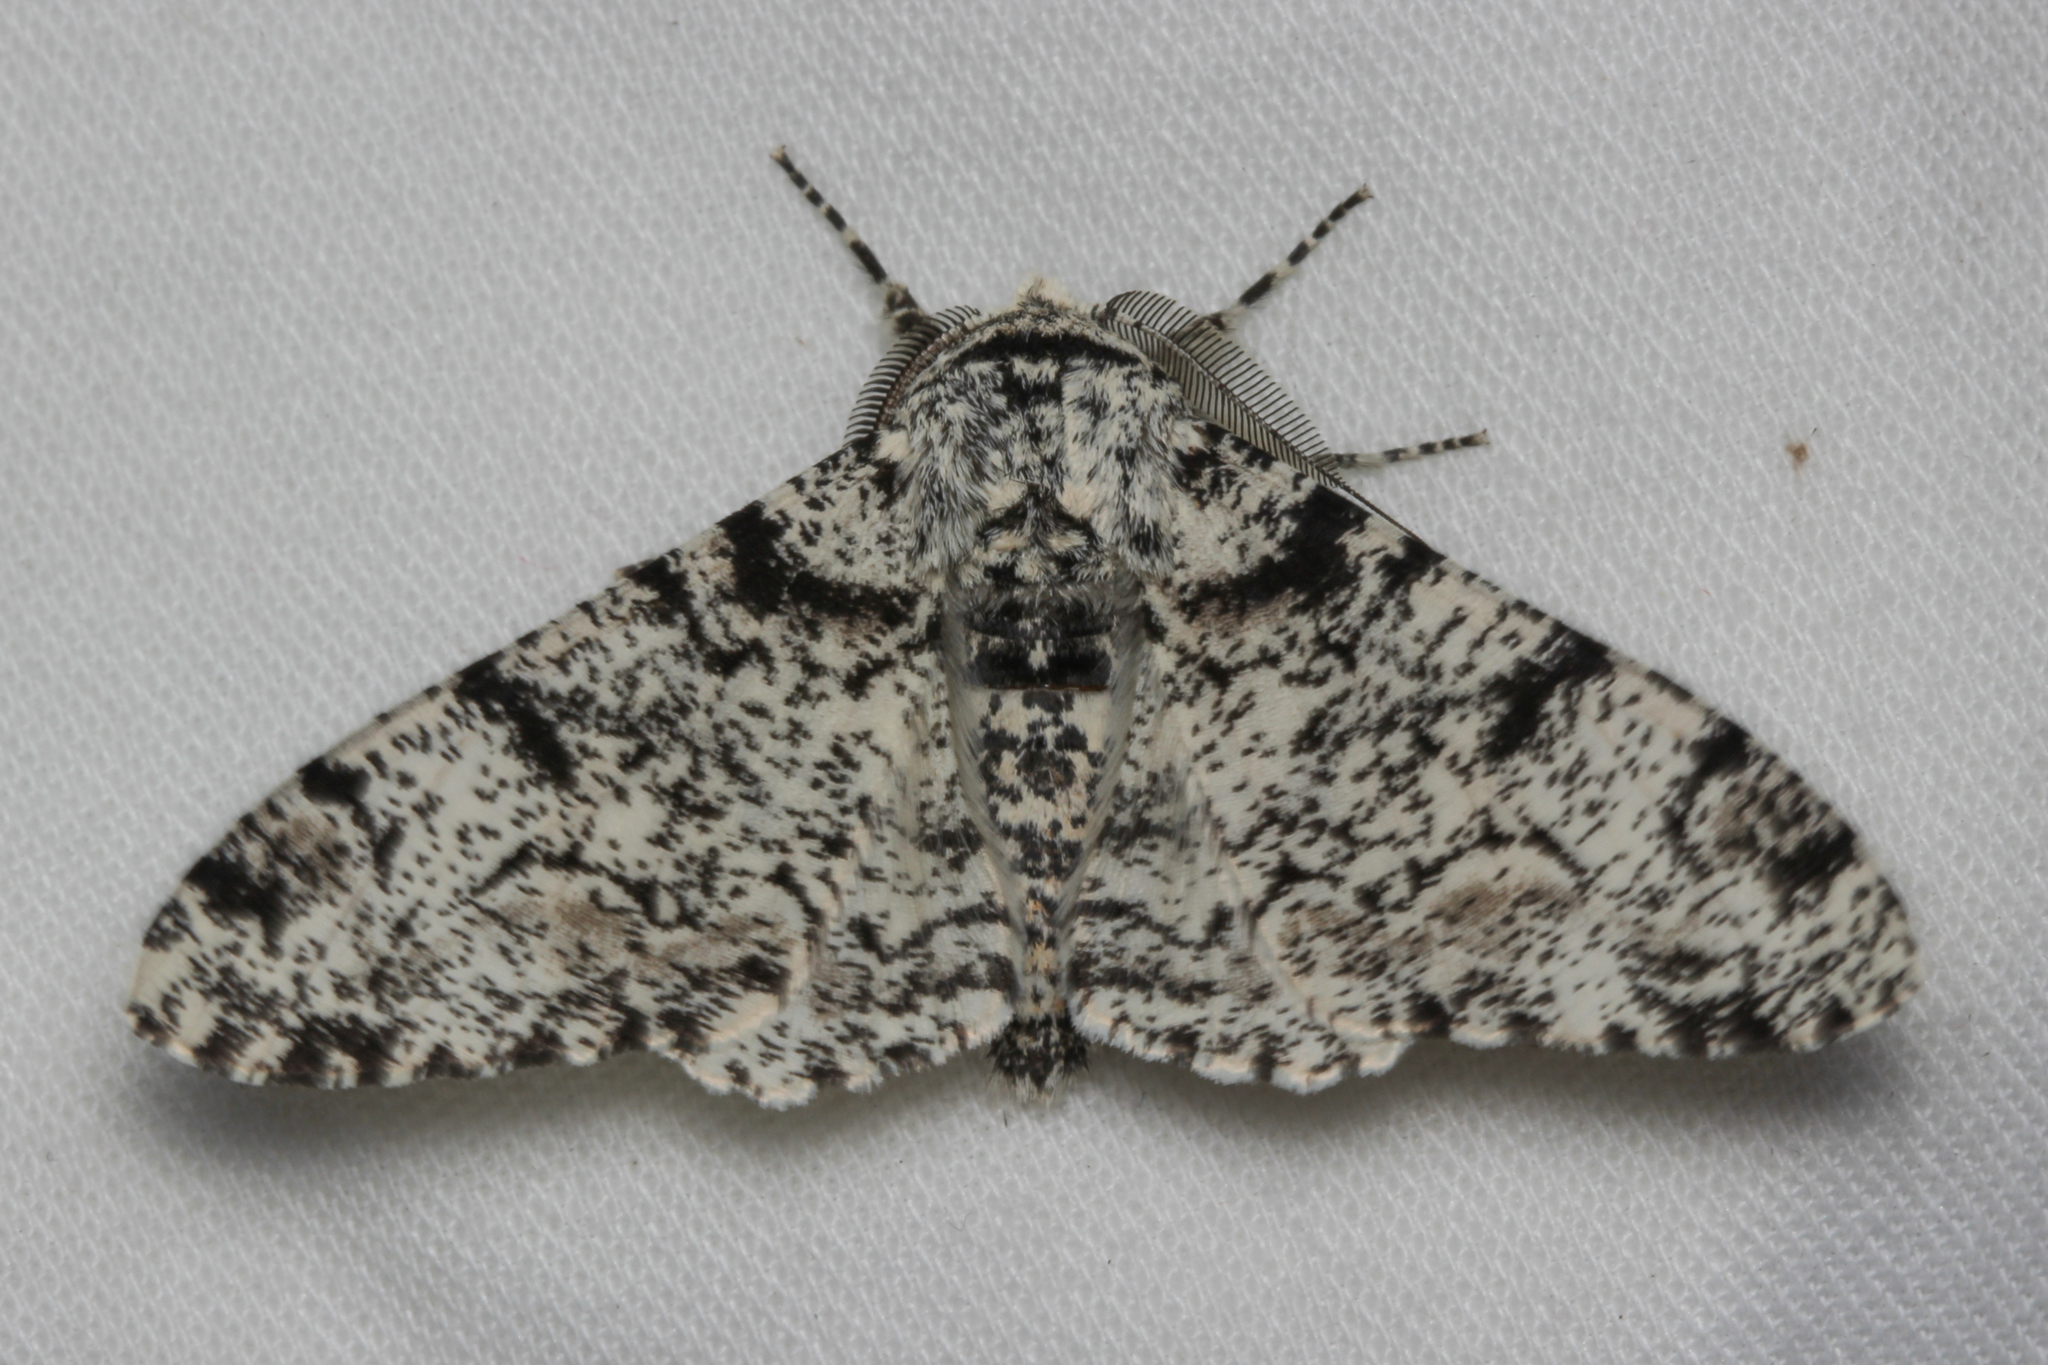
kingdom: Animalia
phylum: Arthropoda
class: Insecta
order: Lepidoptera
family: Geometridae
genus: Biston
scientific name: Biston betularia
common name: Peppered moth
